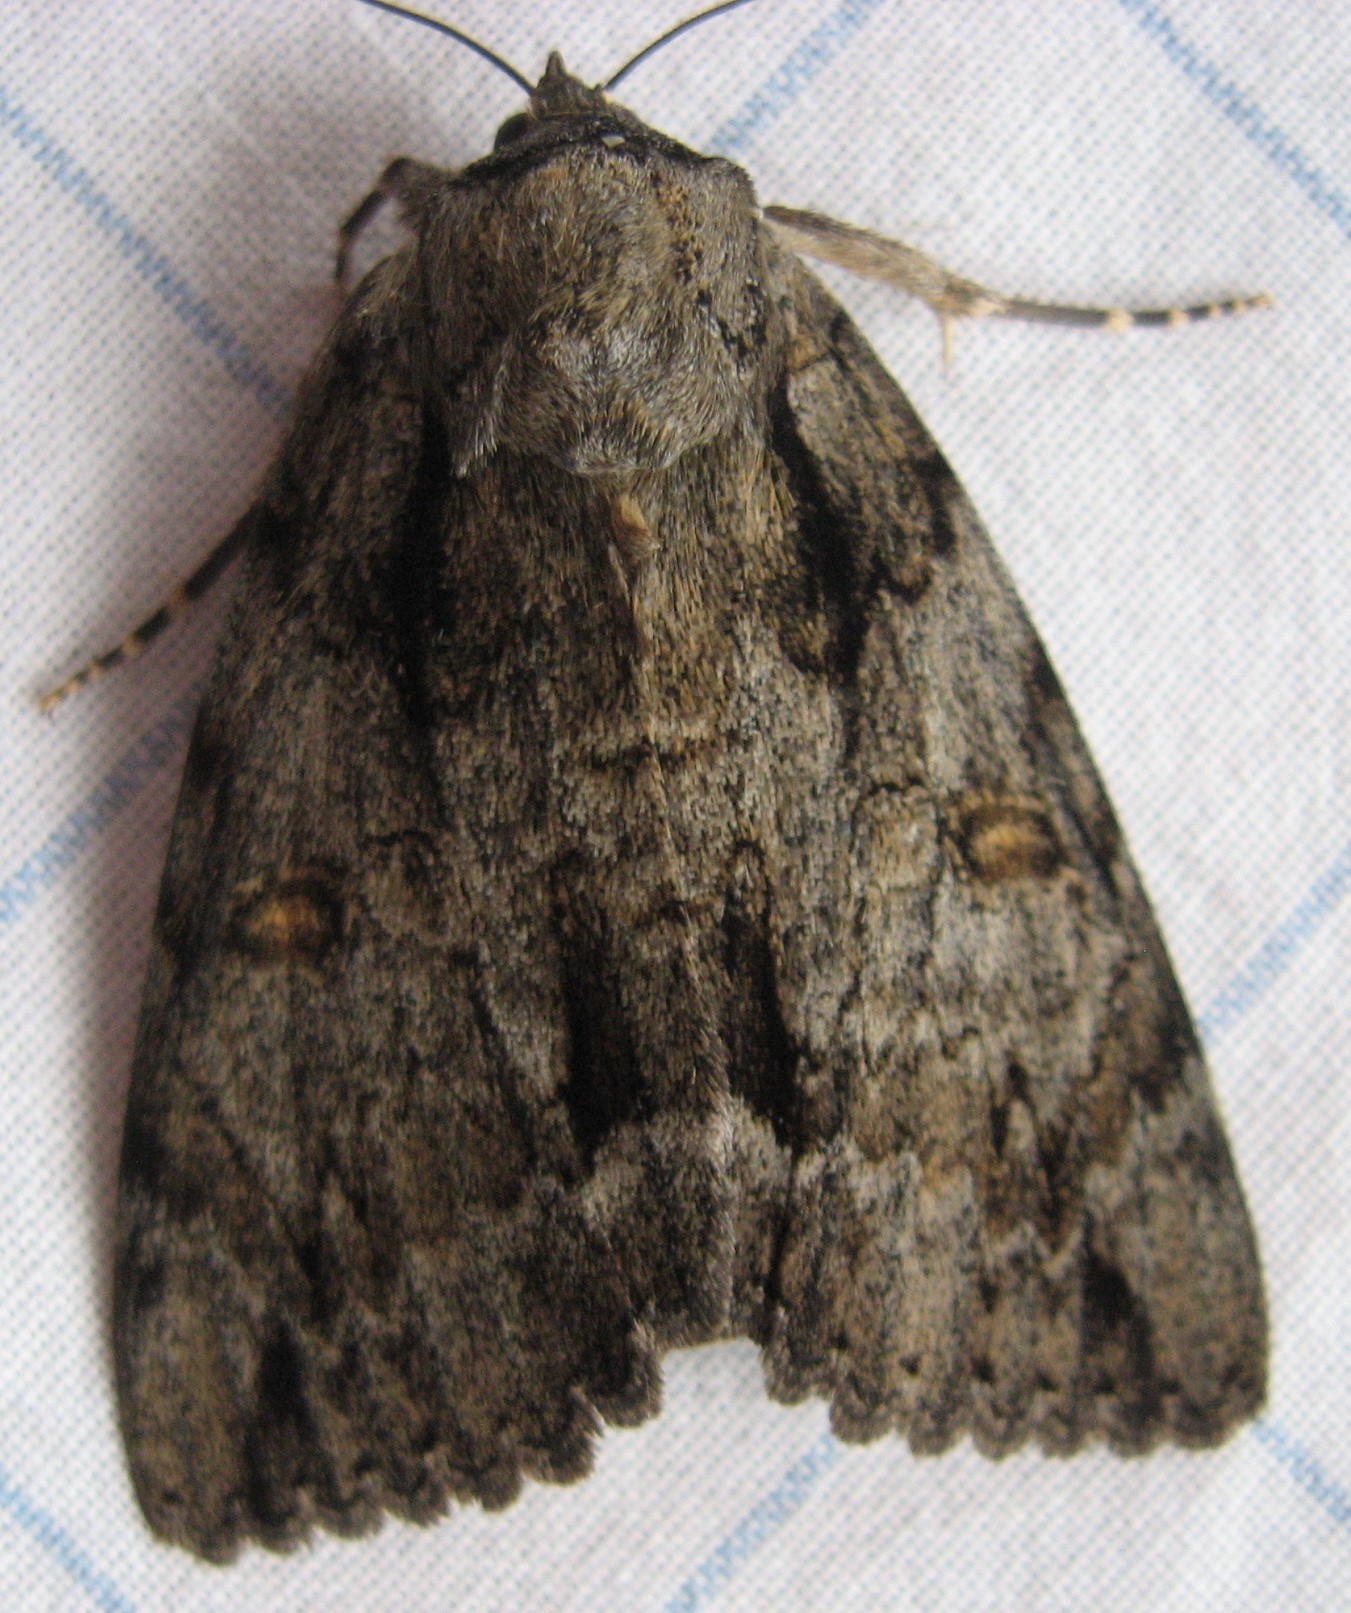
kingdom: Animalia
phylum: Arthropoda
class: Insecta
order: Lepidoptera
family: Erebidae
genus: Catocala
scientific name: Catocala neogama
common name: Bride underwing
